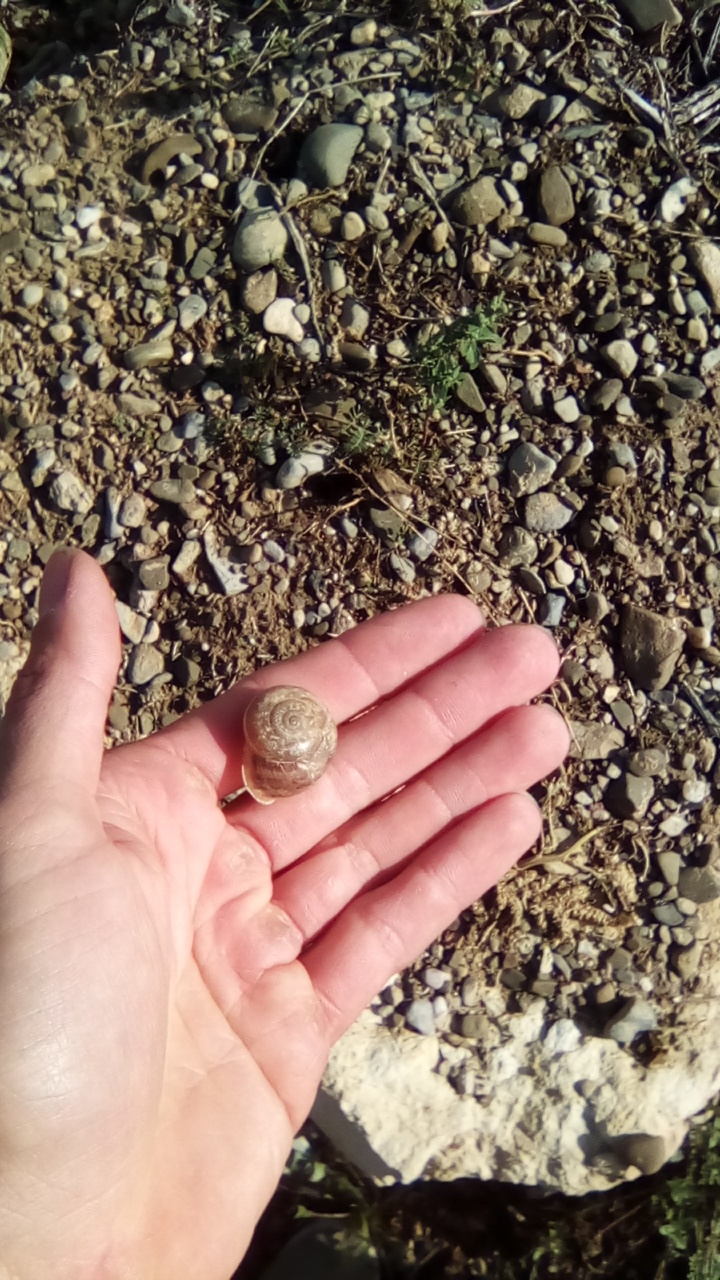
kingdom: Animalia
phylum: Mollusca
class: Gastropoda
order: Stylommatophora
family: Helicidae
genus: Eobania
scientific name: Eobania vermiculata
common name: Chocolateband snail
